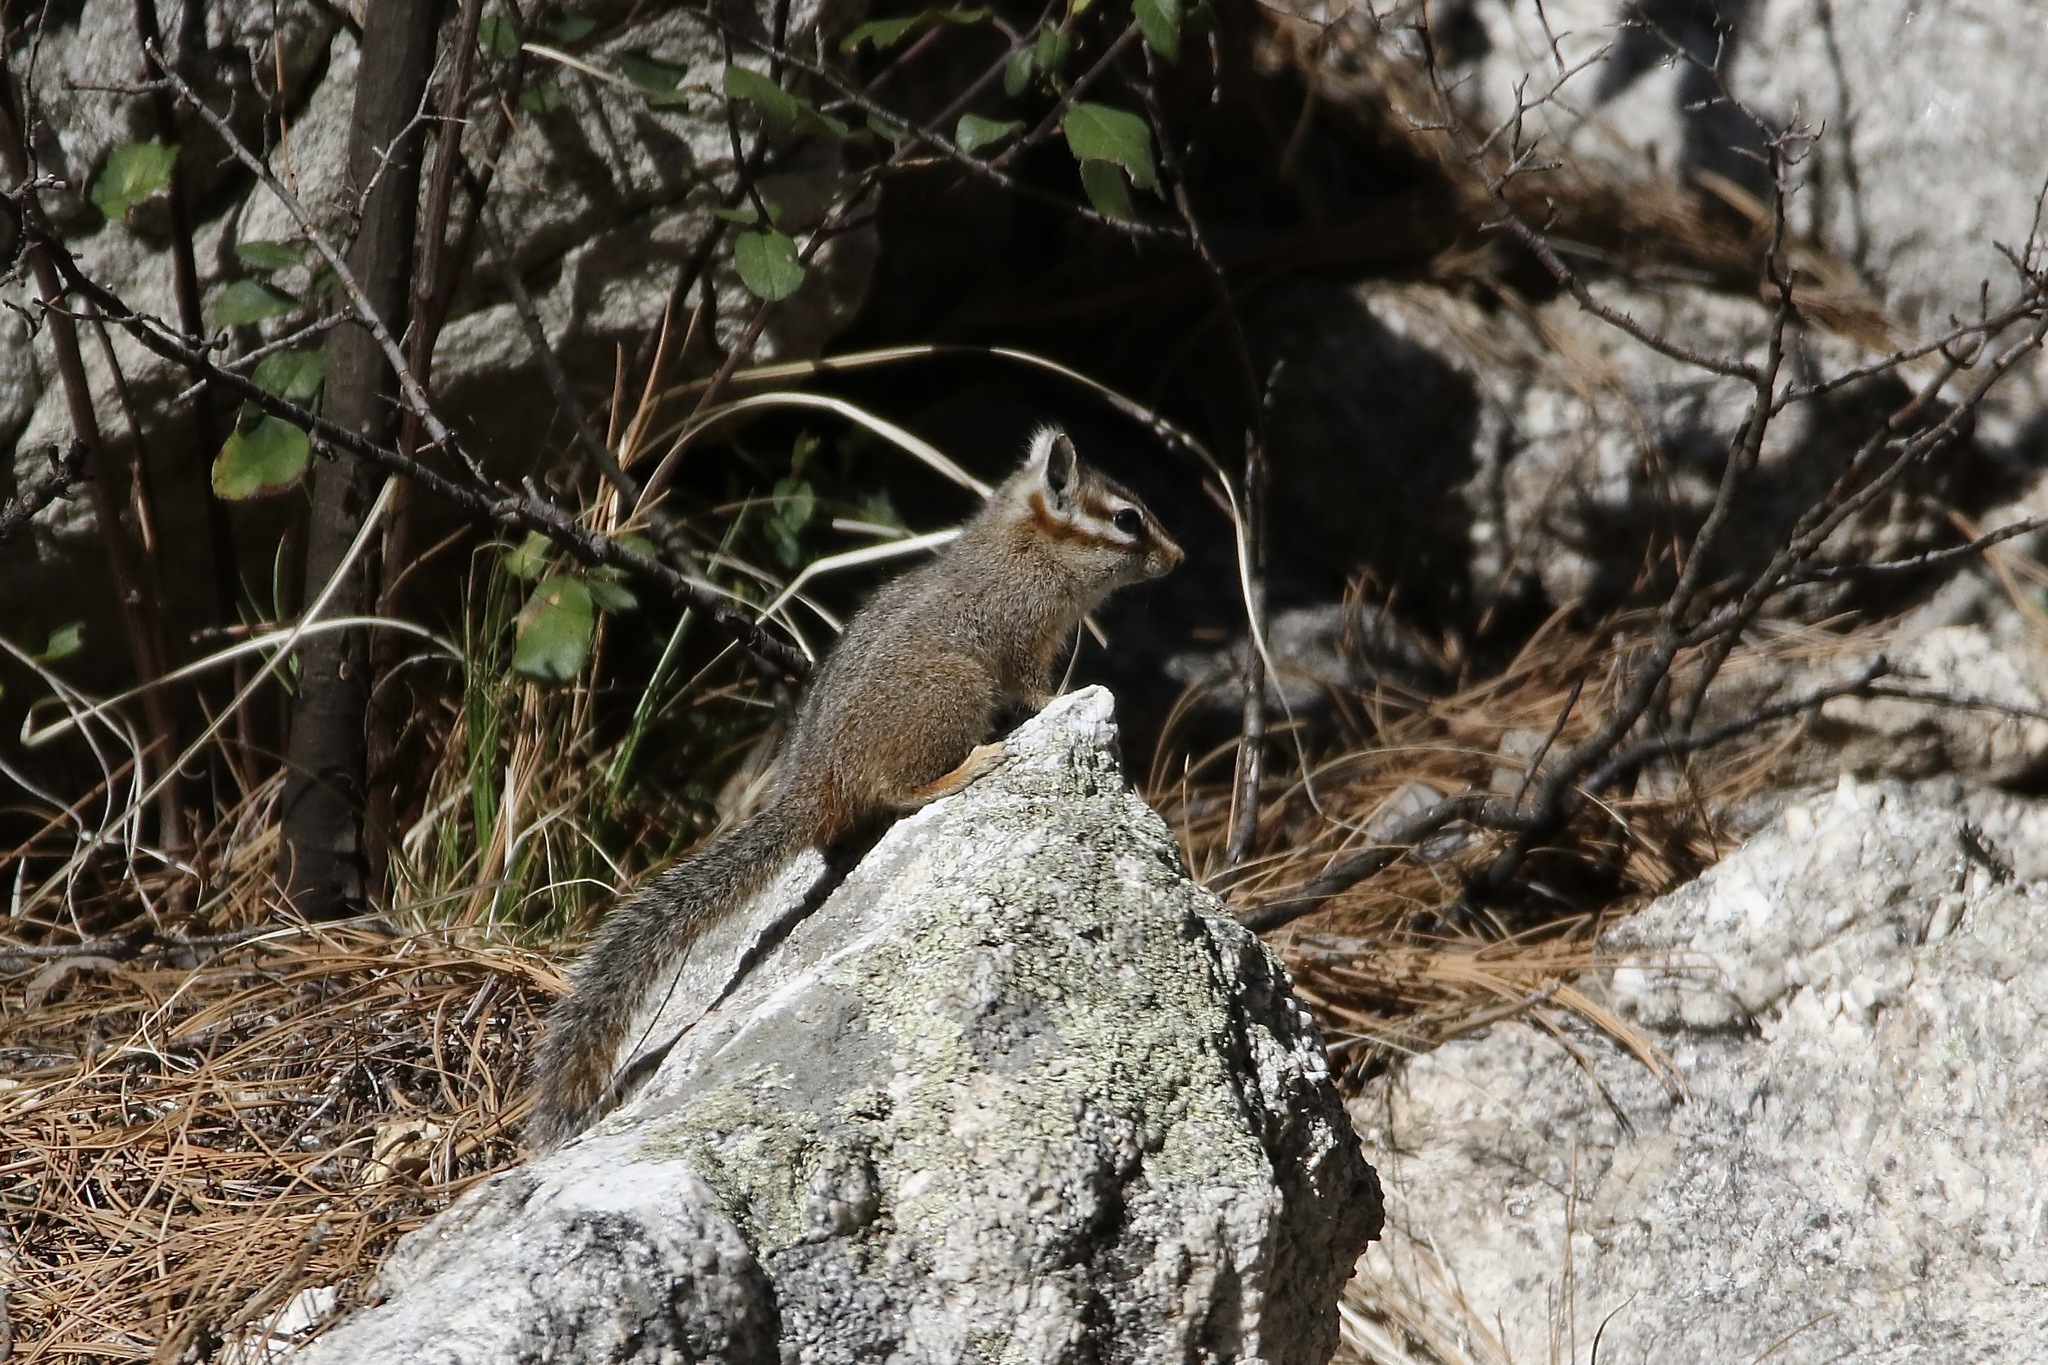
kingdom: Animalia
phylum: Chordata
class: Mammalia
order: Rodentia
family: Sciuridae
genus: Tamias
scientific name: Tamias dorsalis
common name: Cliff chipmunk
